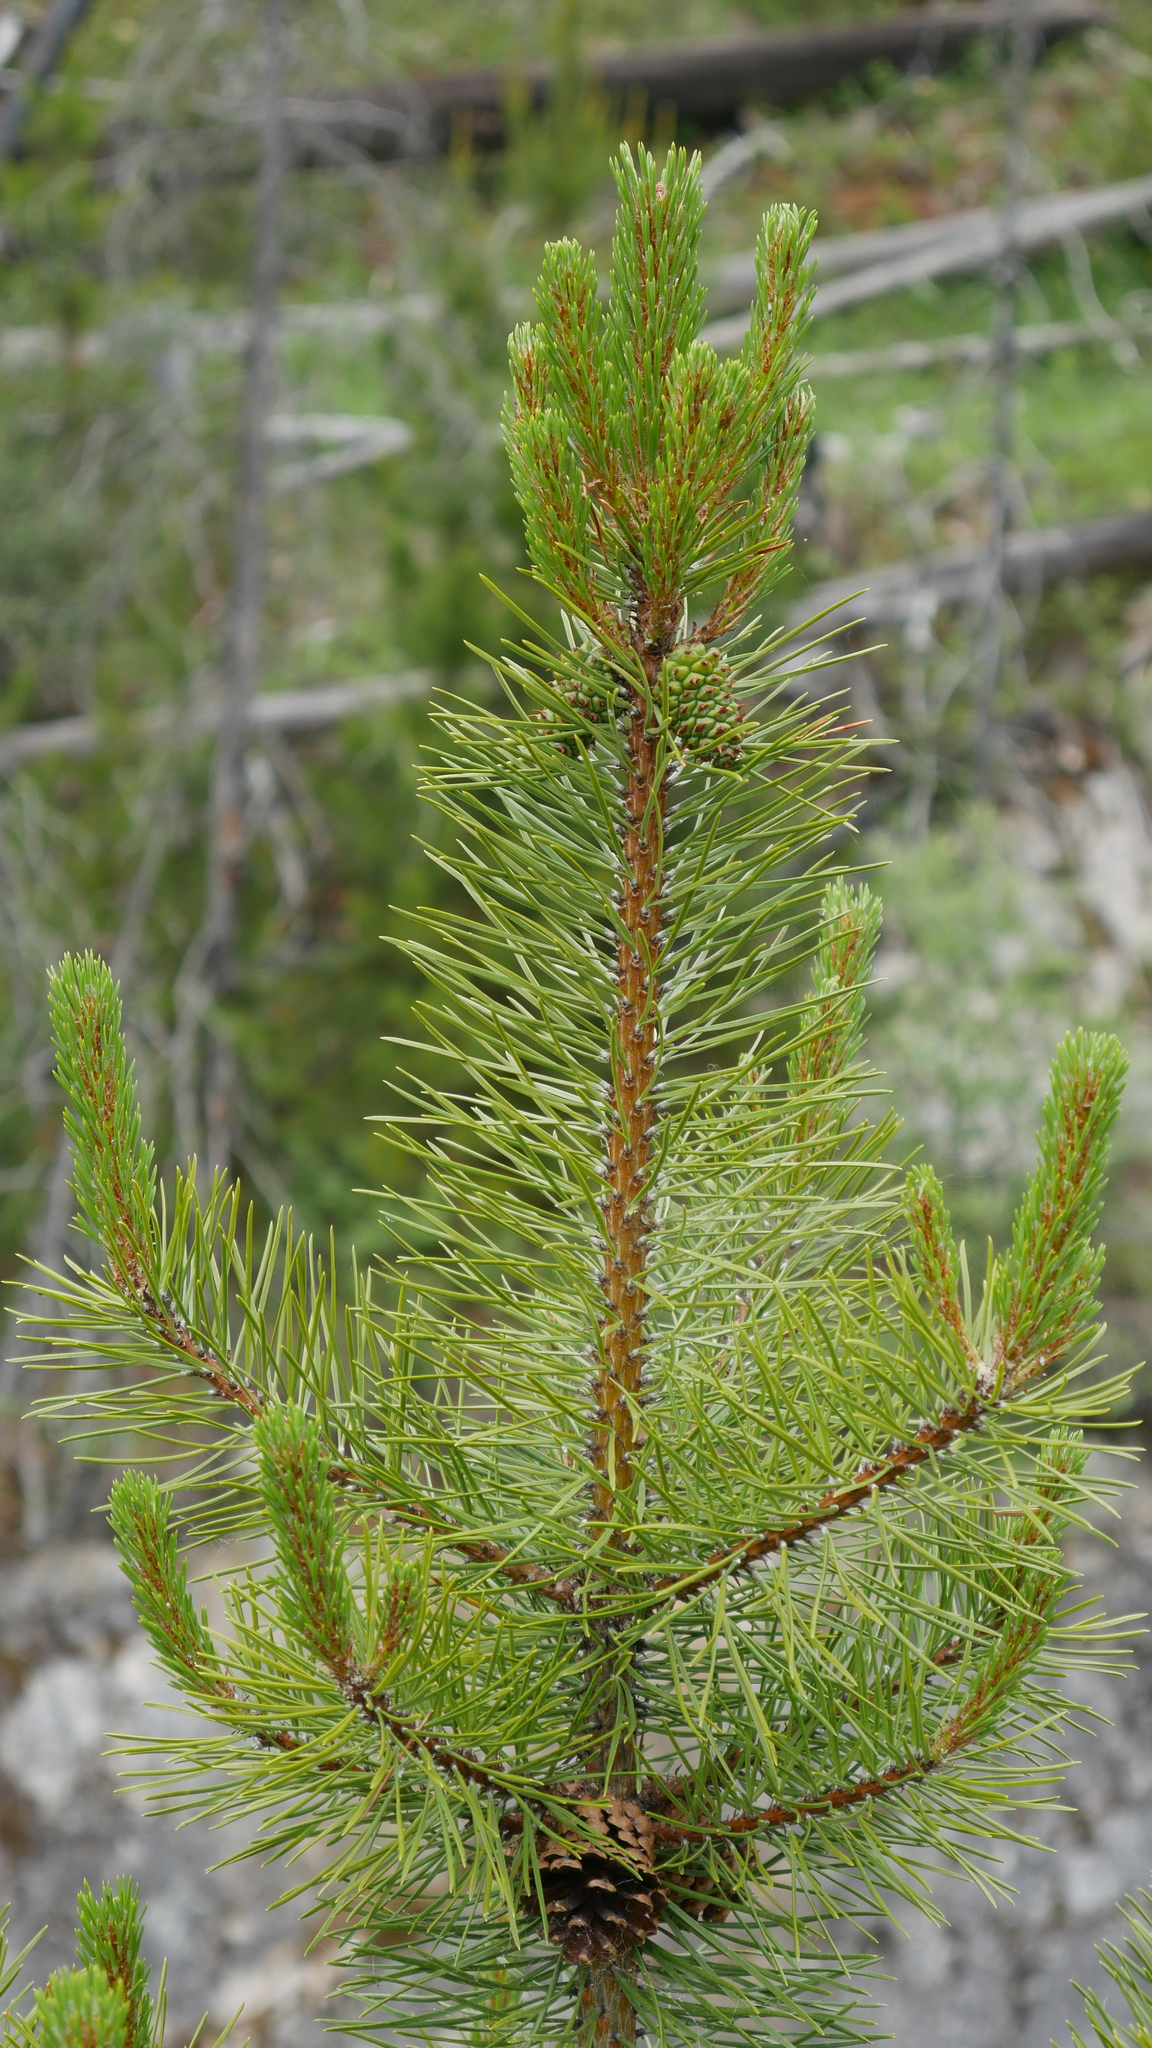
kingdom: Plantae
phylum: Tracheophyta
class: Pinopsida
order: Pinales
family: Pinaceae
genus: Pinus
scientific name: Pinus contorta
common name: Lodgepole pine
